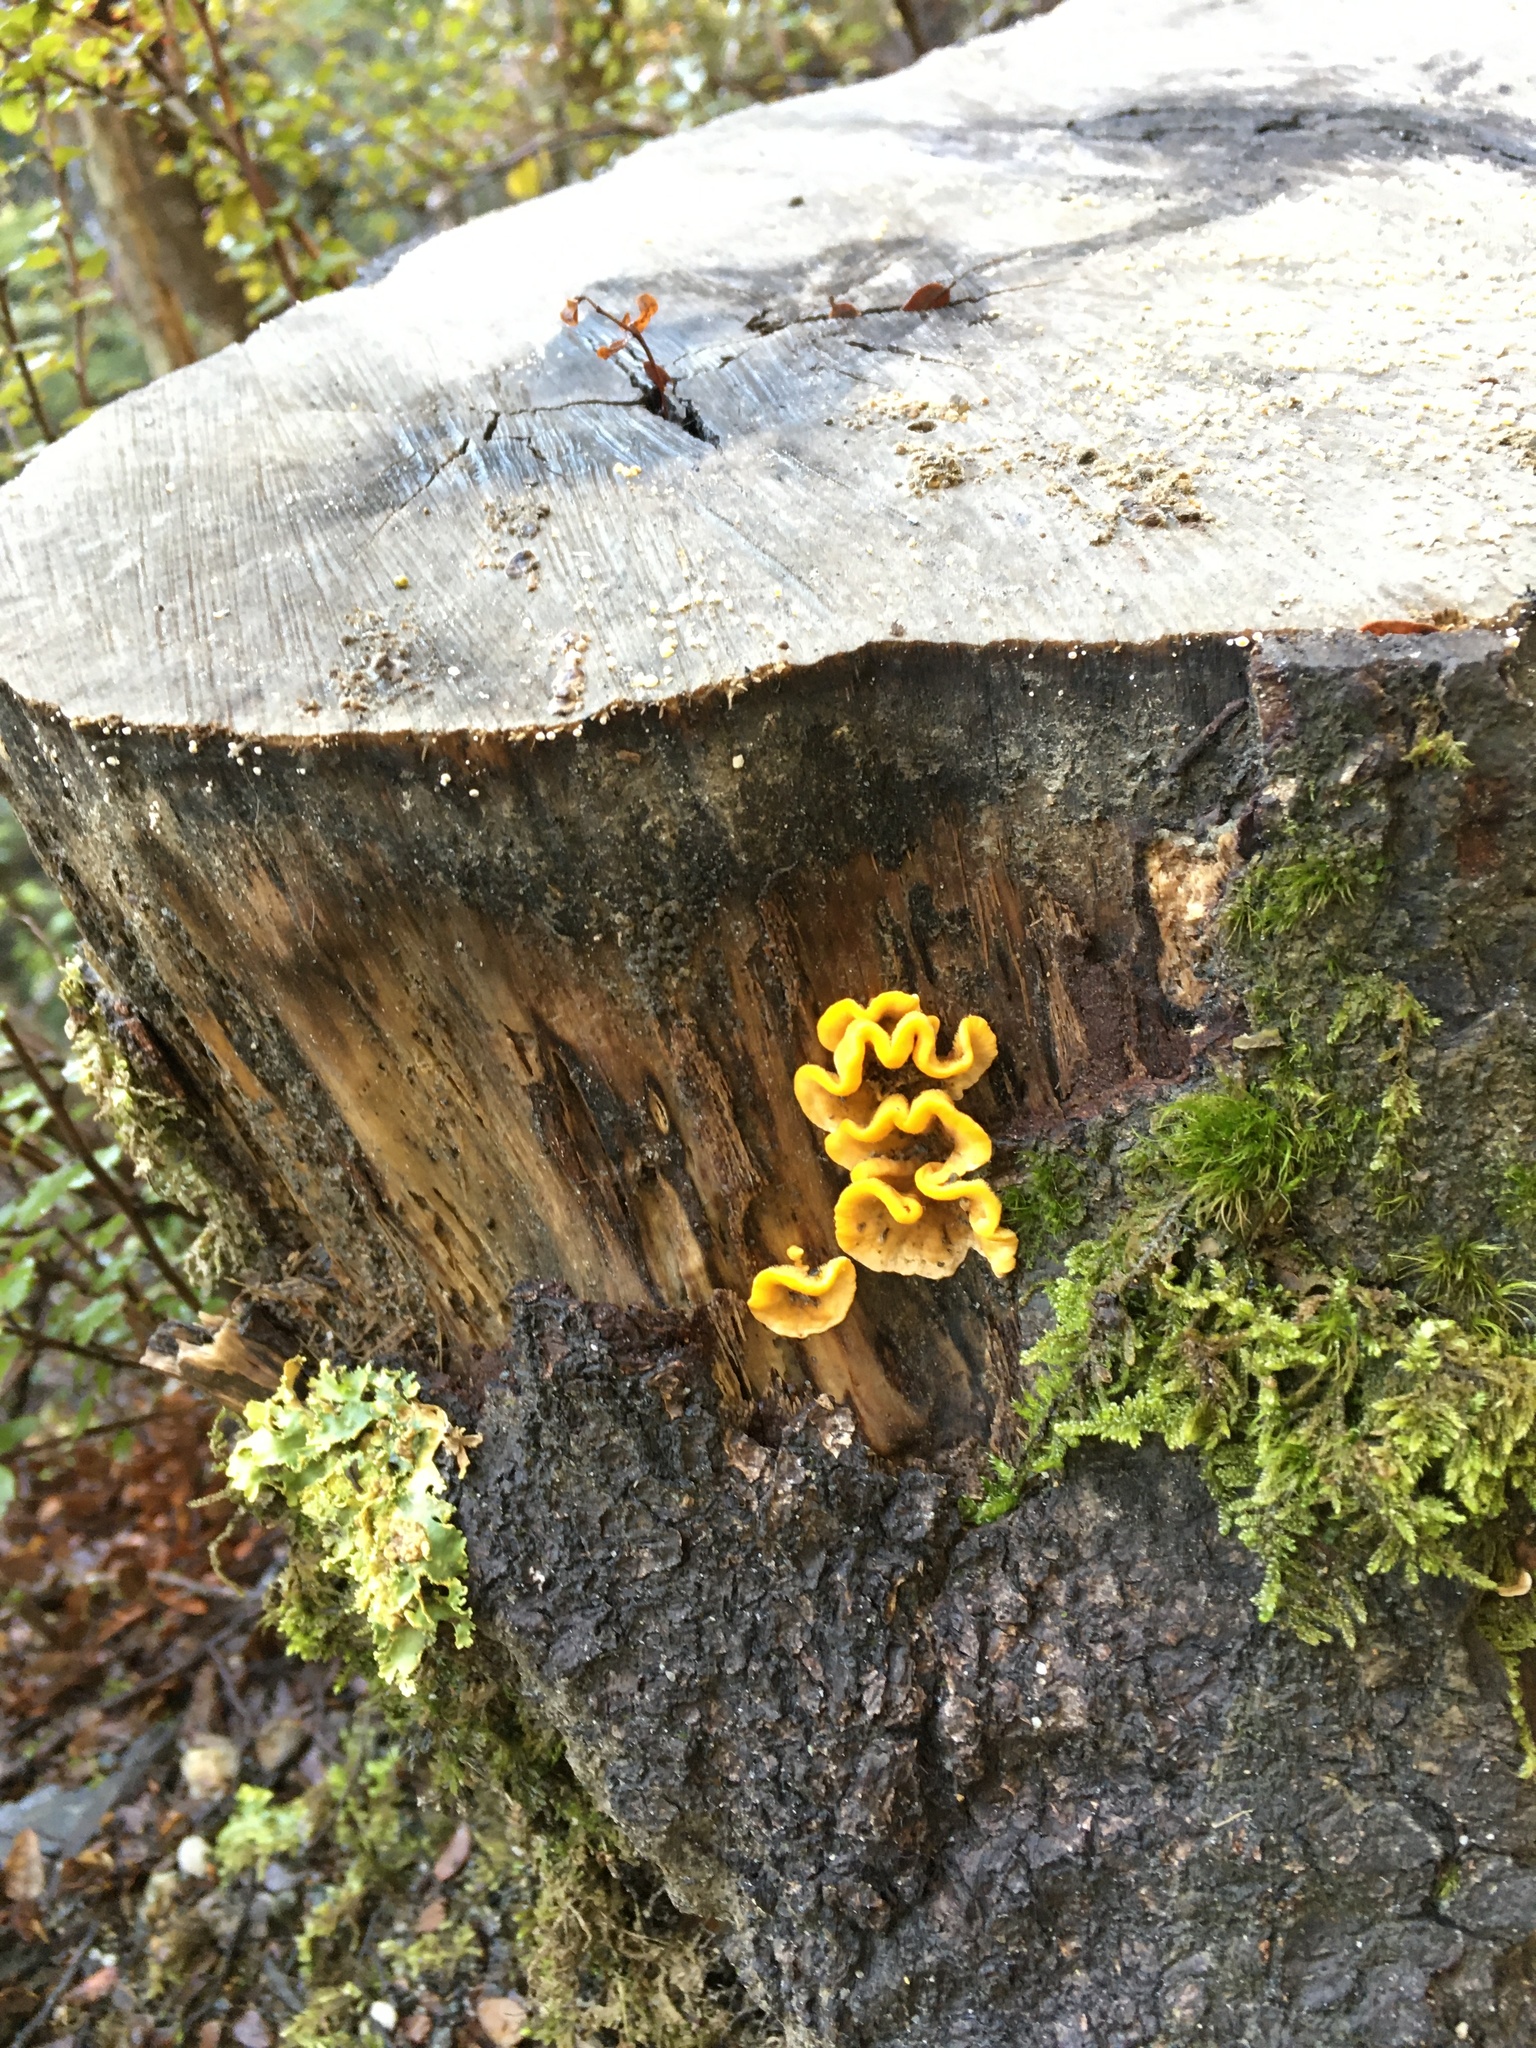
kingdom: Fungi
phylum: Basidiomycota
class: Agaricomycetes
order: Russulales
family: Stereaceae
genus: Stereum
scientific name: Stereum hirsutum
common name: Hairy curtain crust
